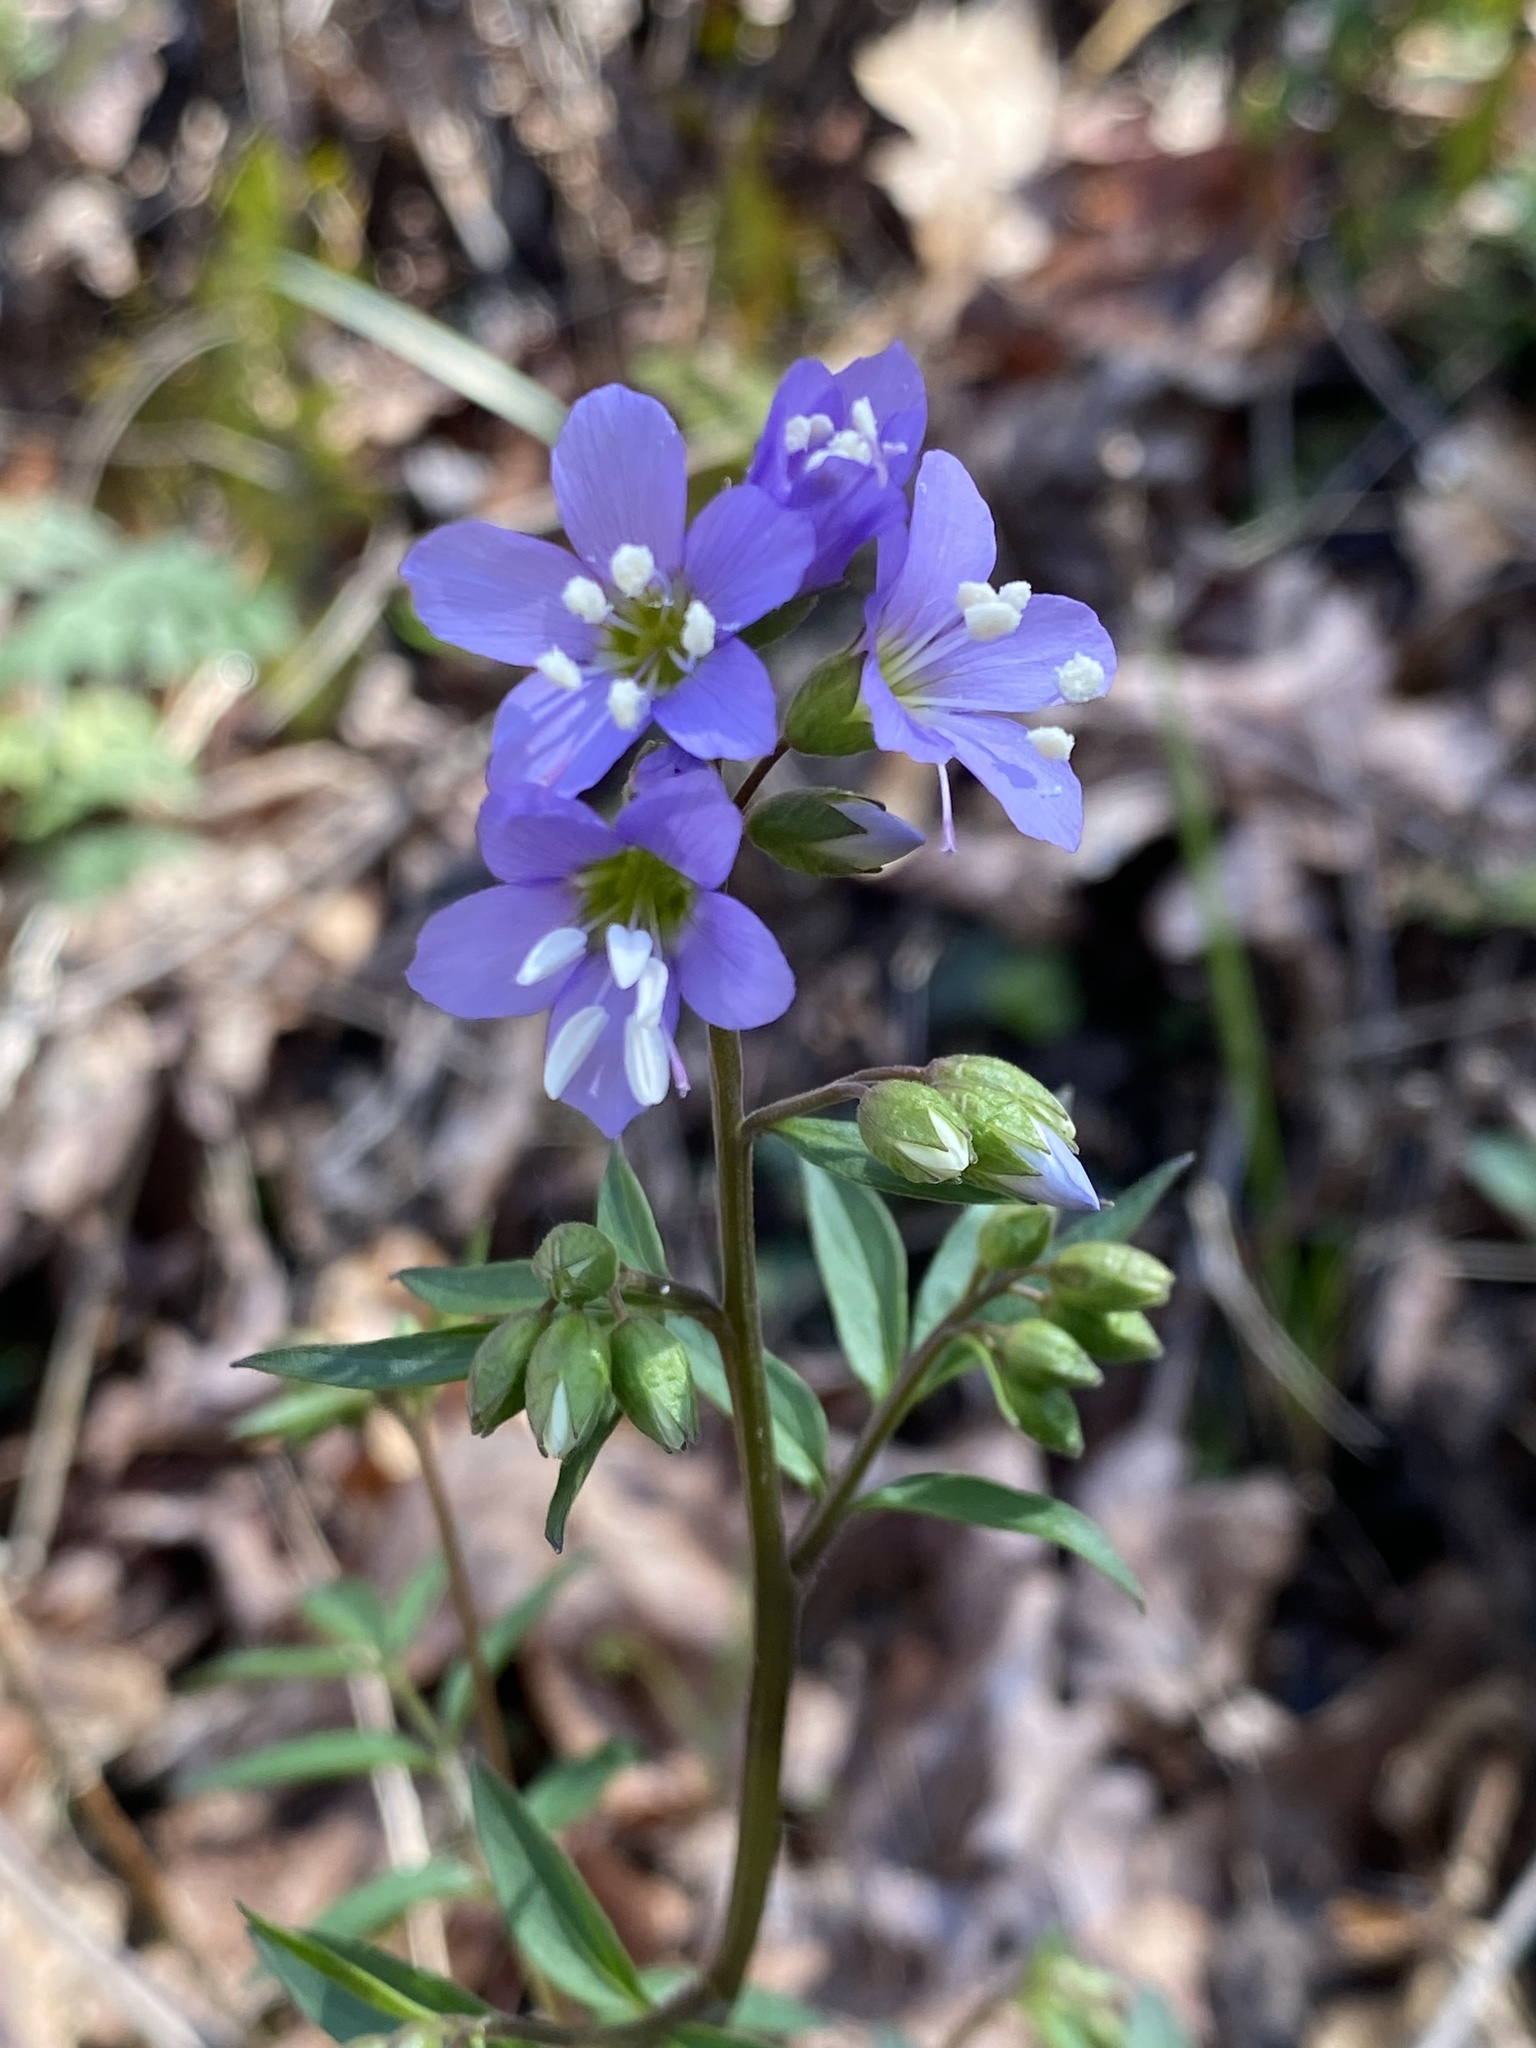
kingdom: Plantae
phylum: Tracheophyta
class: Magnoliopsida
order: Ericales
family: Polemoniaceae
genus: Polemonium
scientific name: Polemonium reptans
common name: Creeping jacob's-ladder
